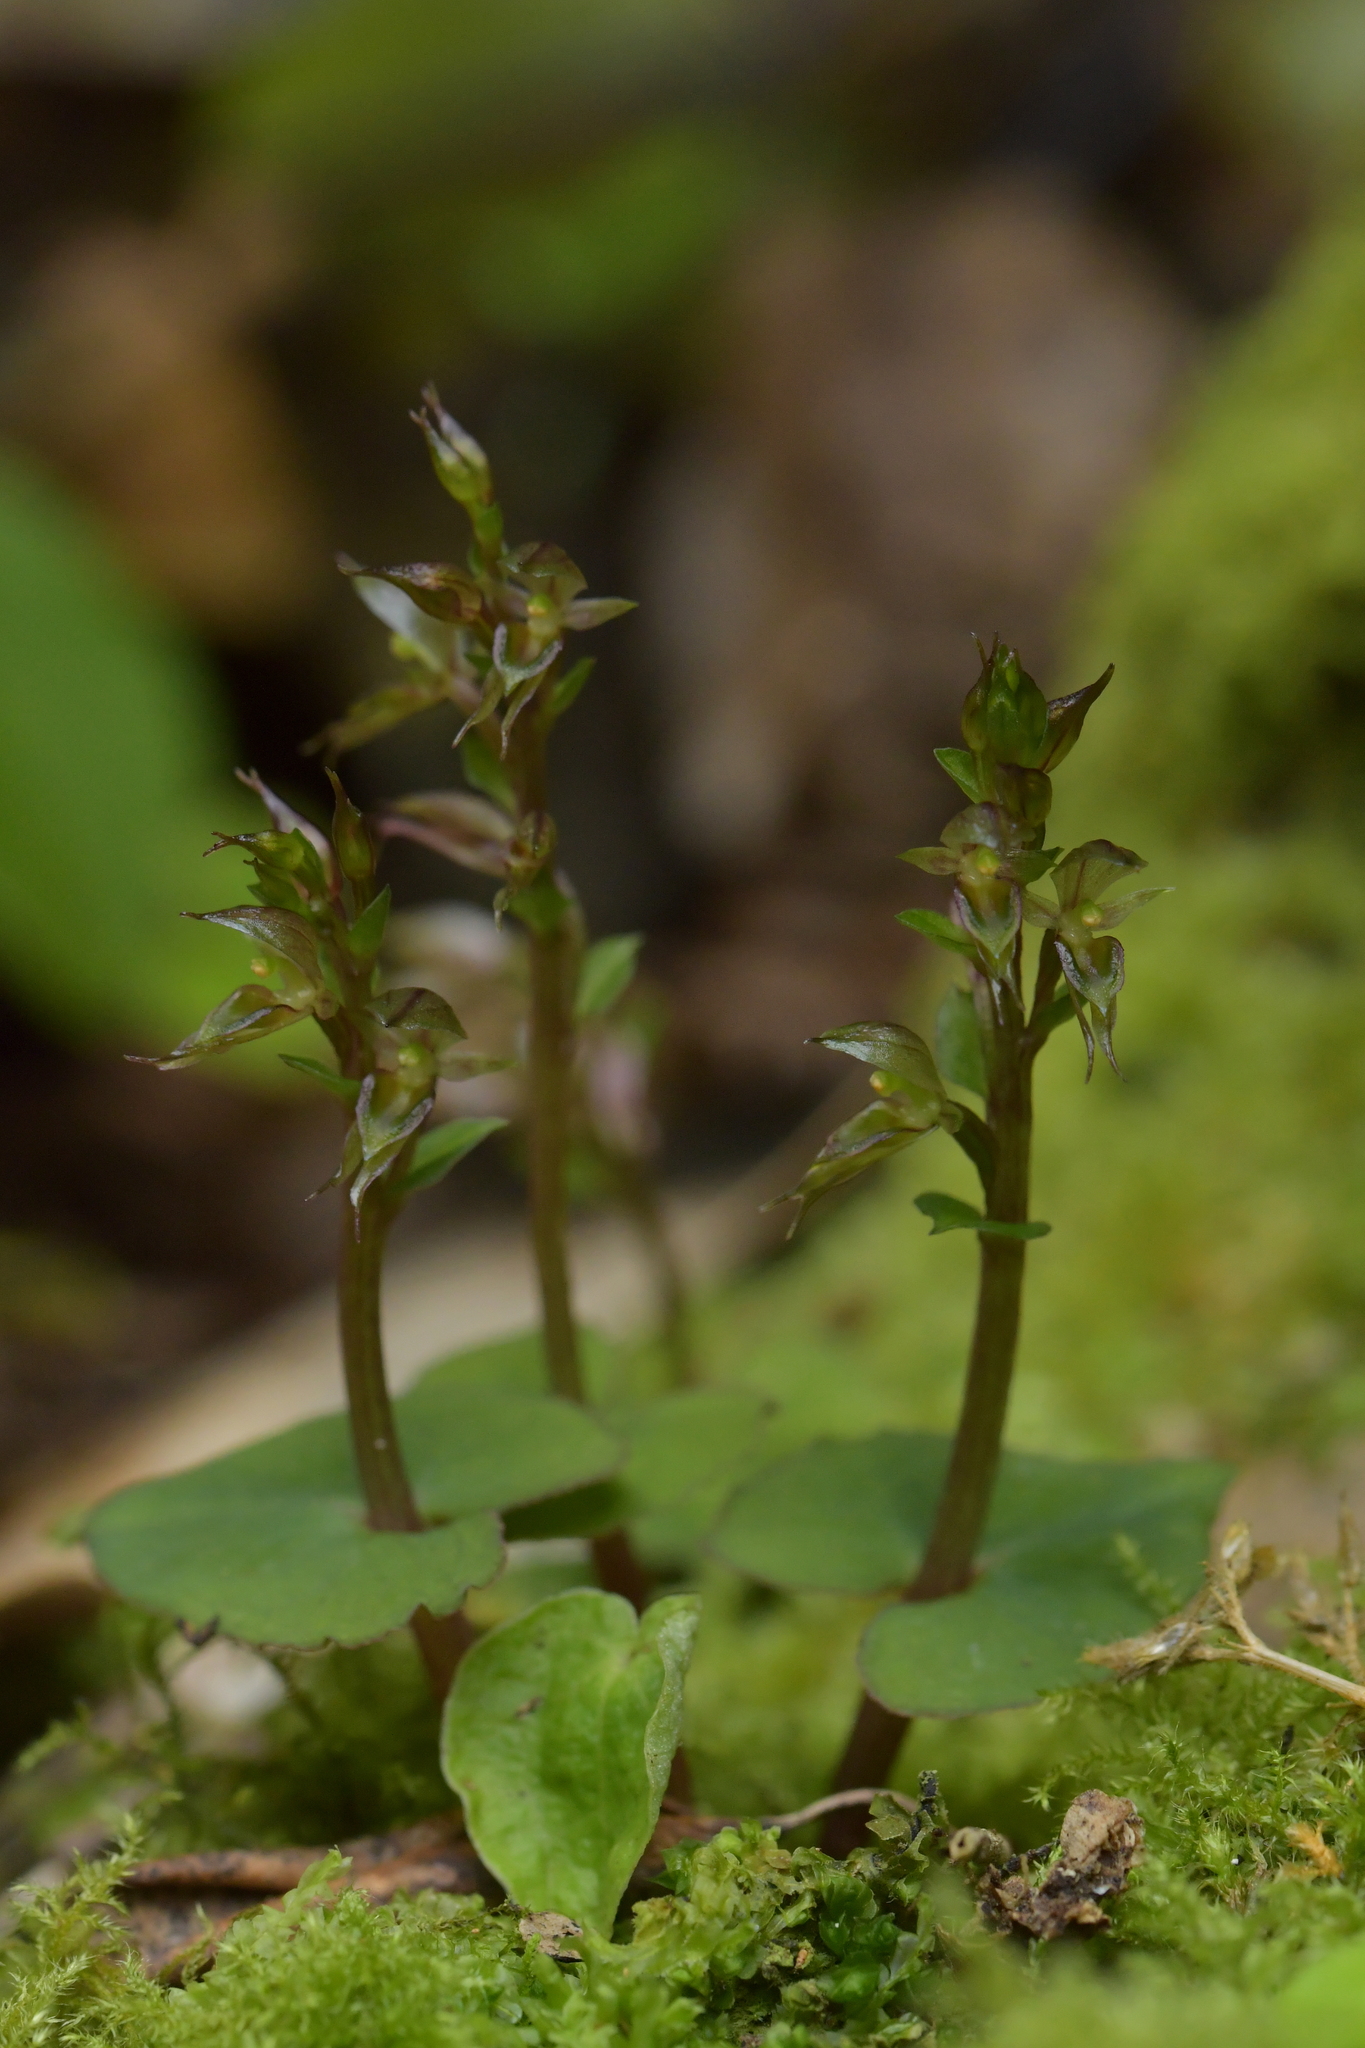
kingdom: Plantae
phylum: Tracheophyta
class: Liliopsida
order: Asparagales
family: Orchidaceae
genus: Acianthus
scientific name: Acianthus sinclairii
